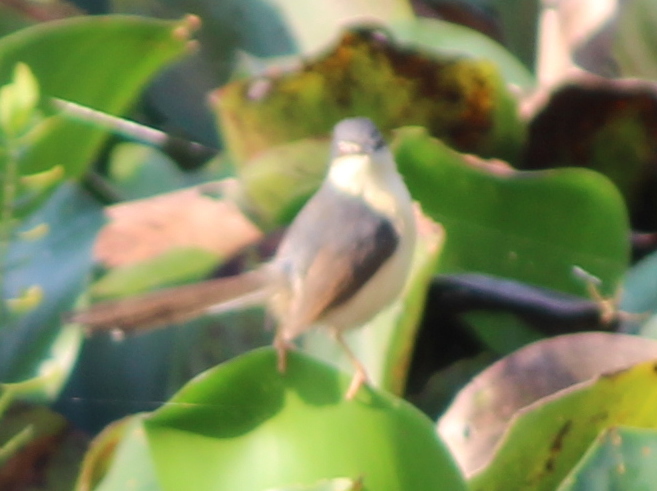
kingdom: Animalia
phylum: Chordata
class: Aves
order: Passeriformes
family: Cisticolidae
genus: Prinia
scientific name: Prinia socialis
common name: Ashy prinia
